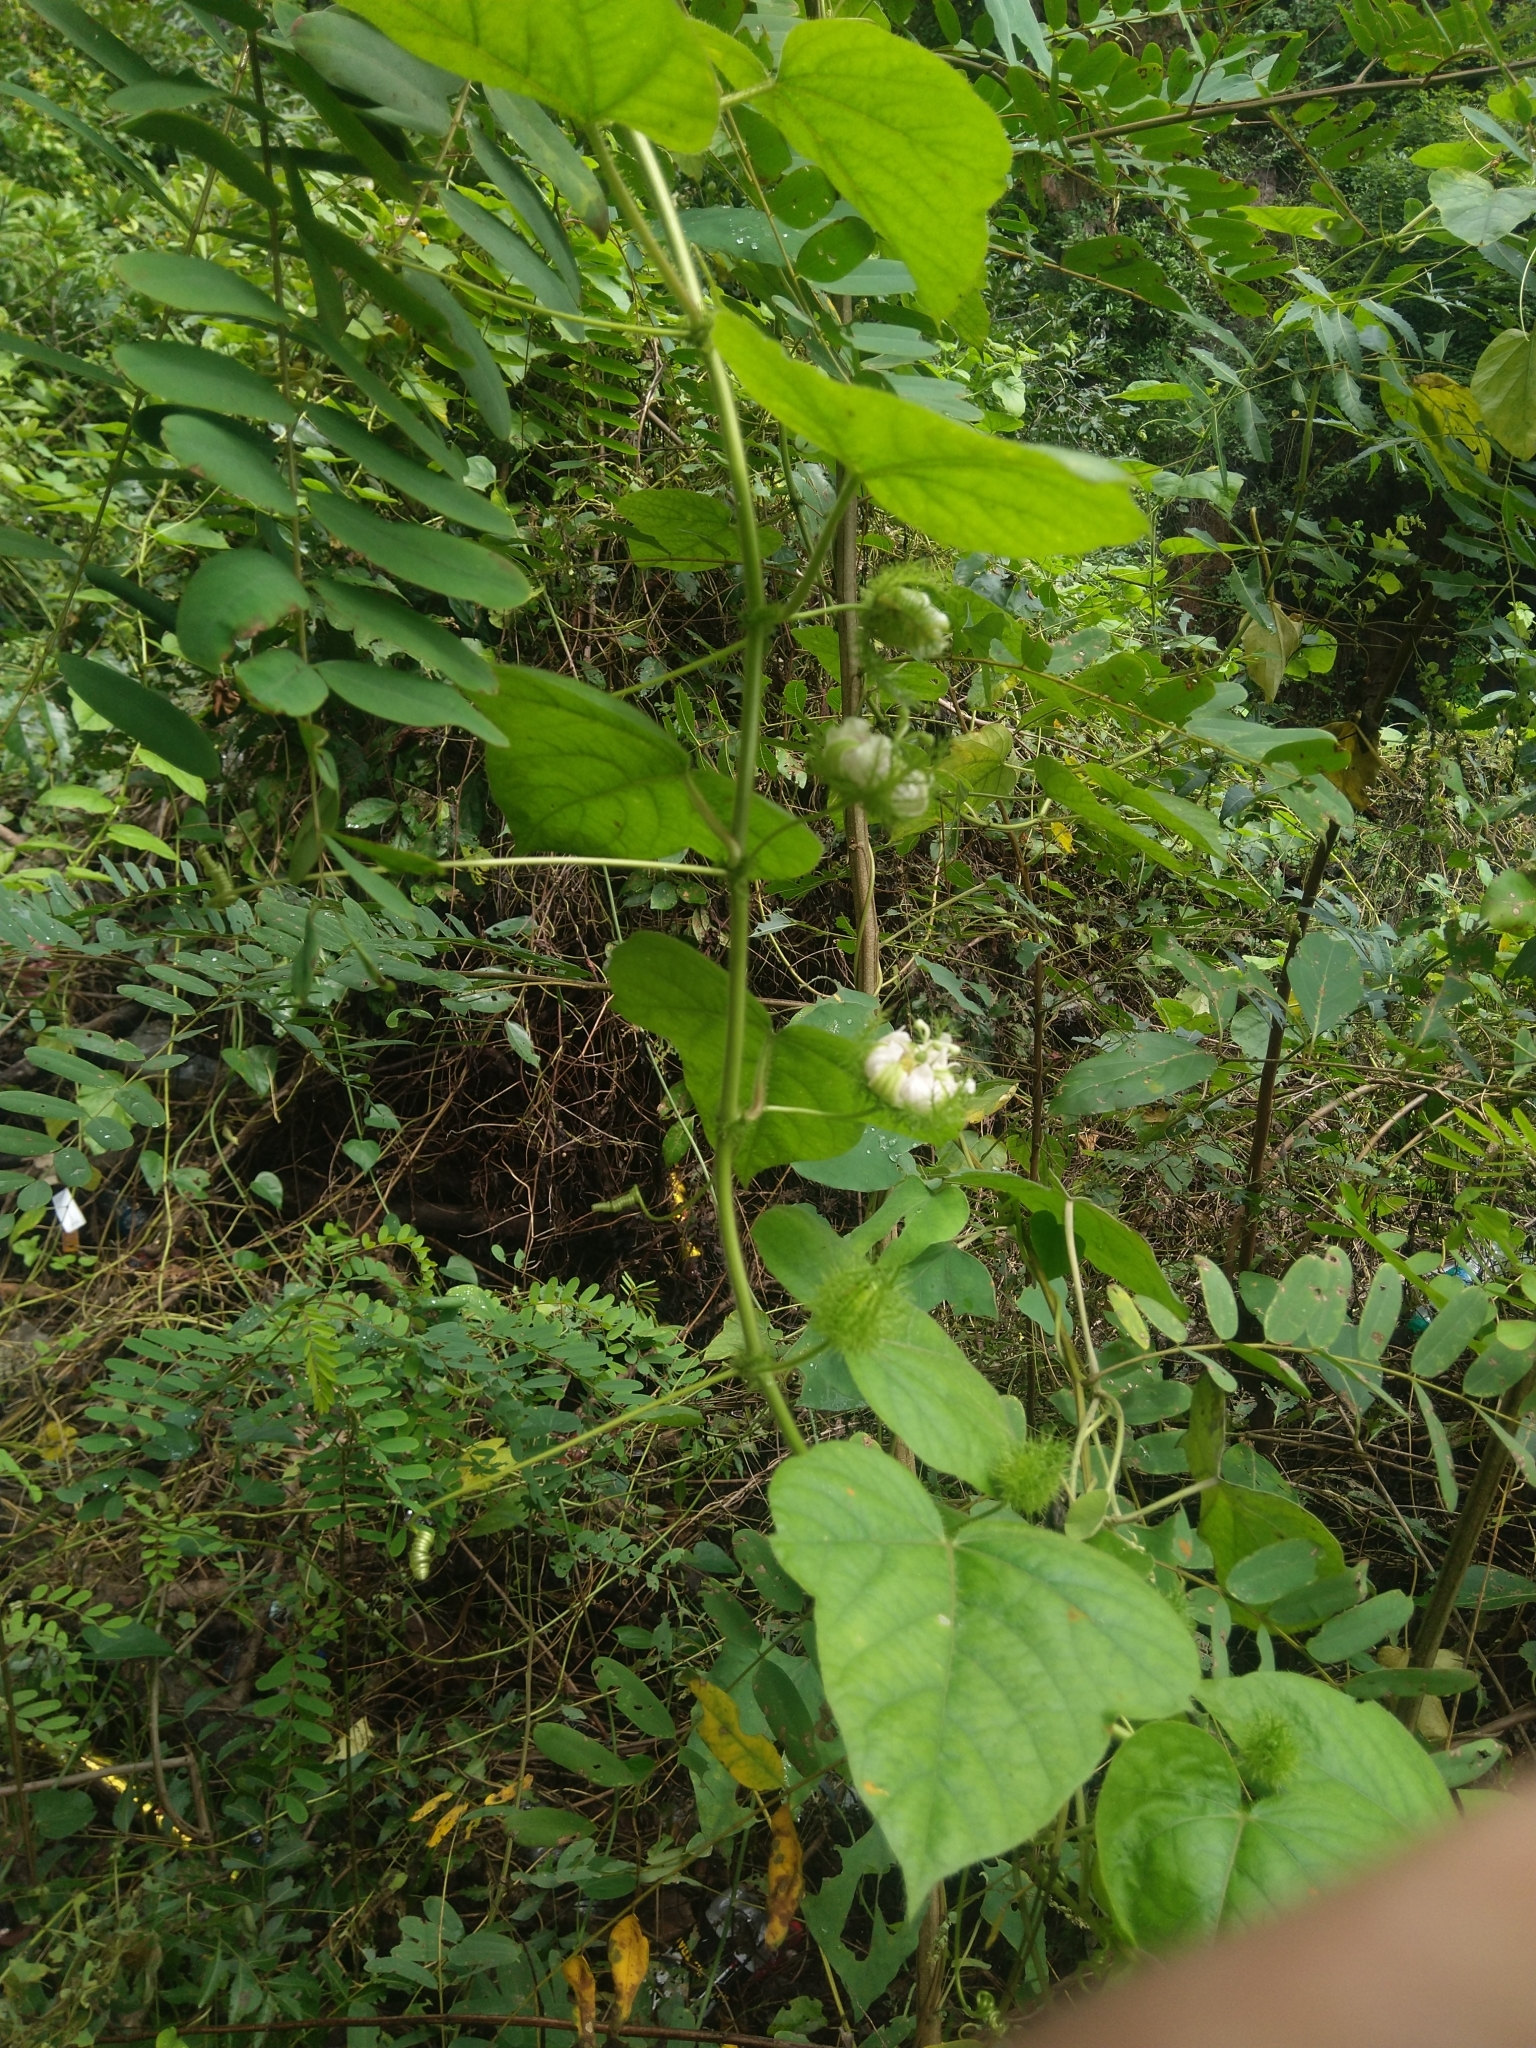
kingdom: Plantae
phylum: Tracheophyta
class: Magnoliopsida
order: Malpighiales
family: Passifloraceae
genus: Passiflora
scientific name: Passiflora foetida
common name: Fetid passionflower
